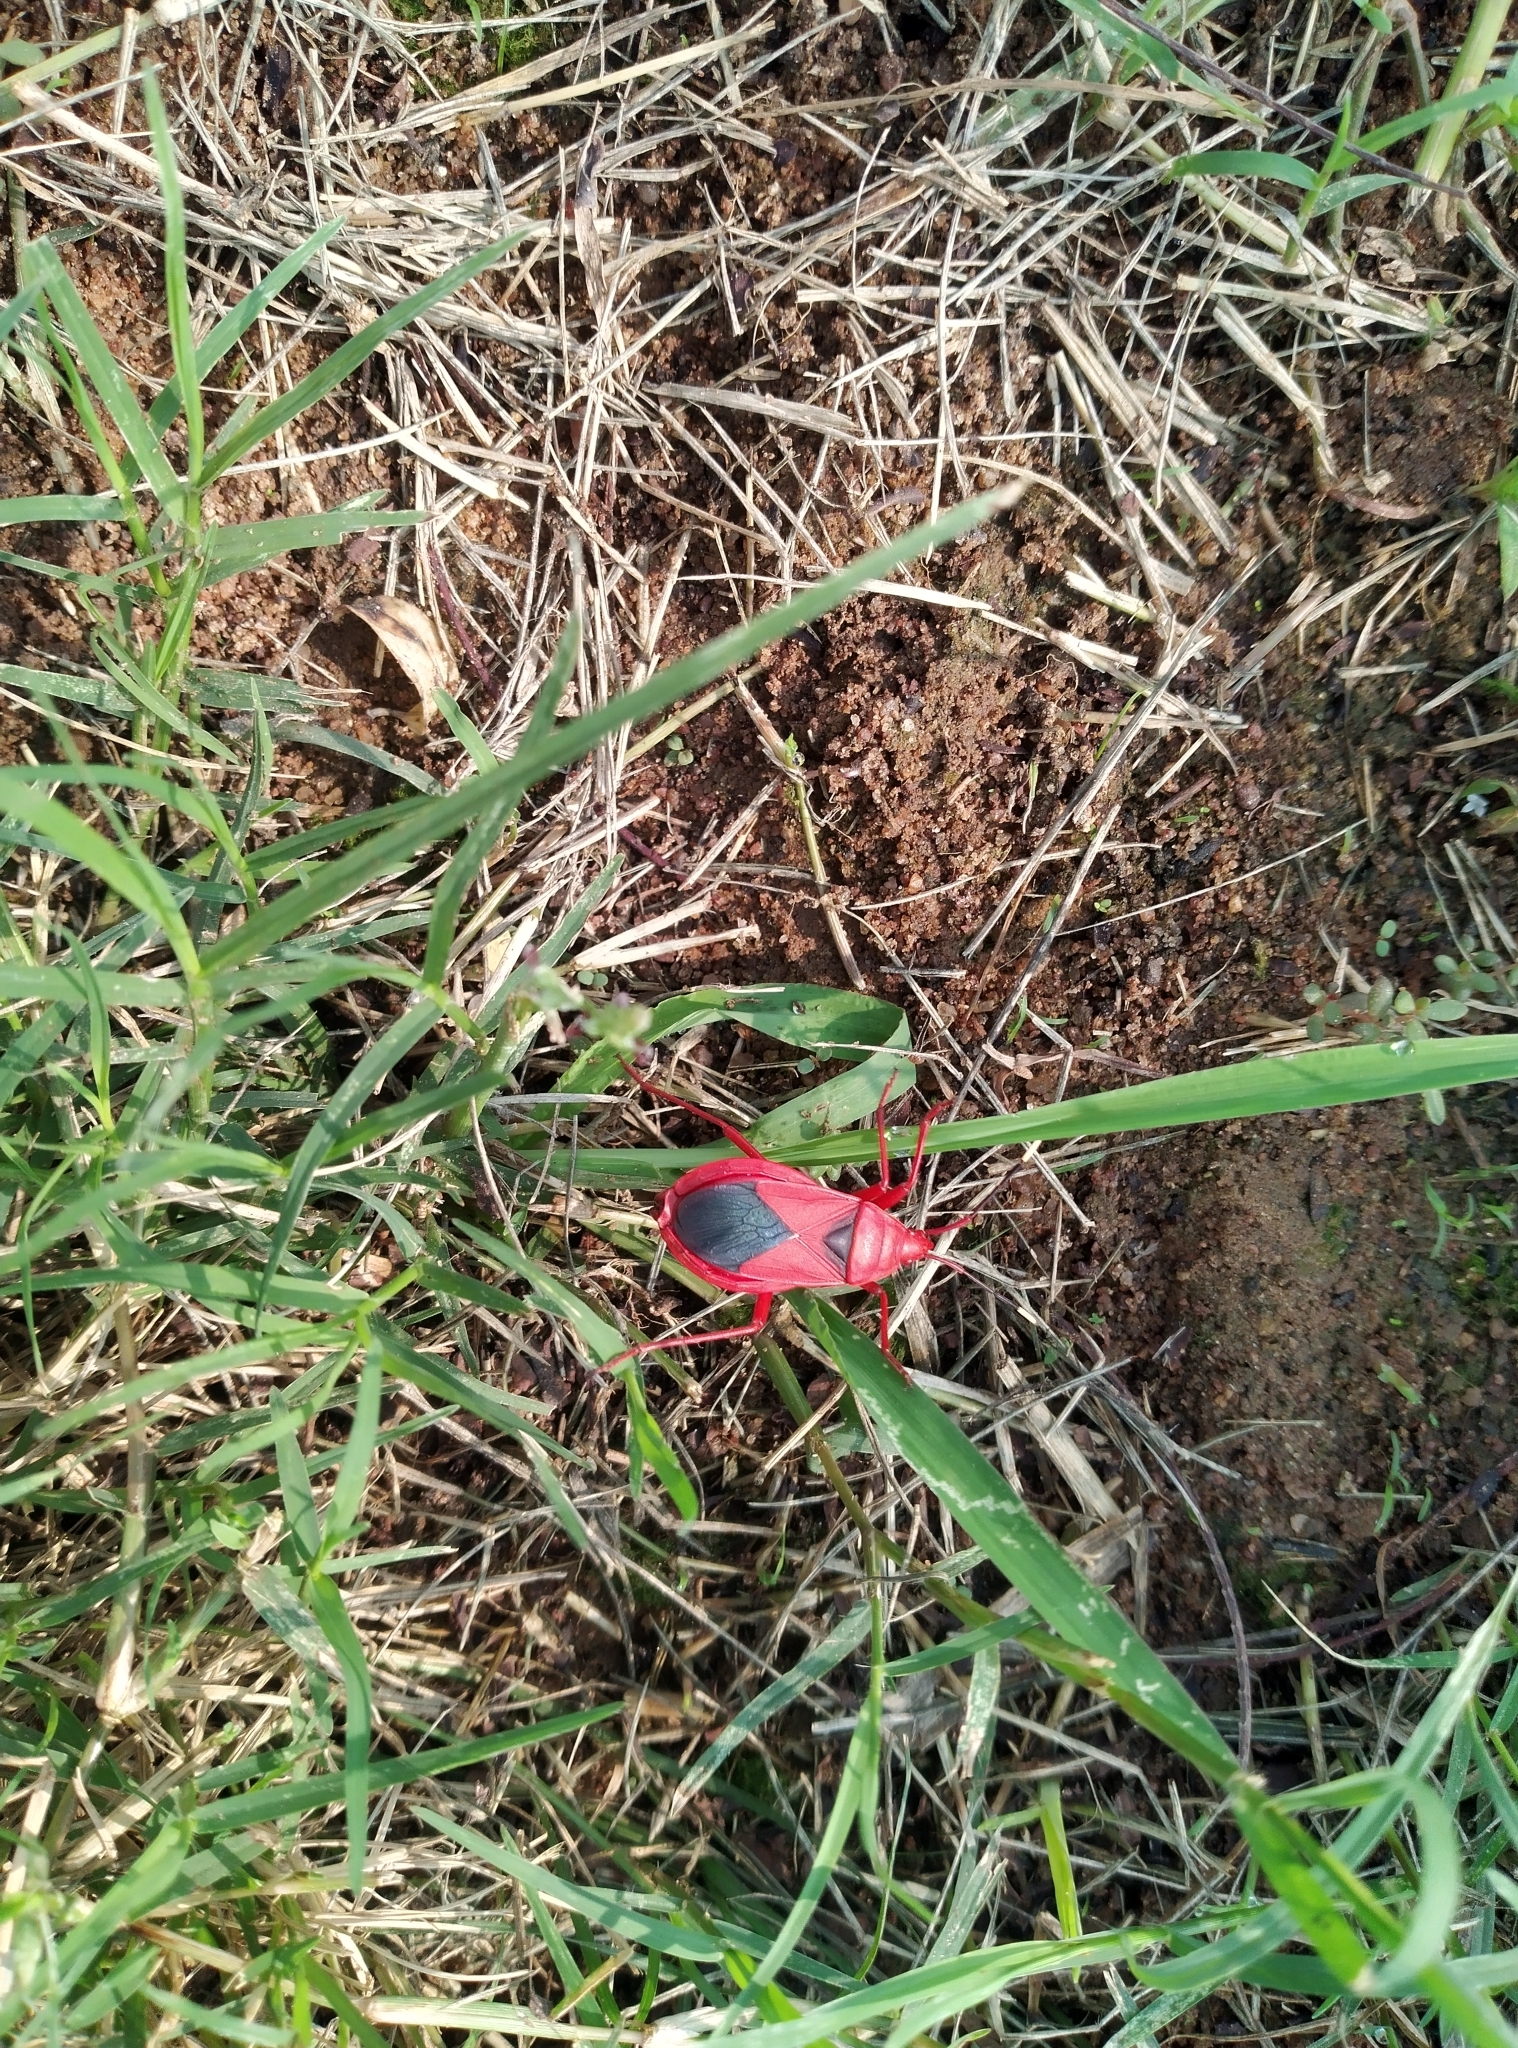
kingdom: Animalia
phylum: Arthropoda
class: Insecta
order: Hemiptera
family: Pyrrhocoridae
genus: Probergrothius
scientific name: Probergrothius
